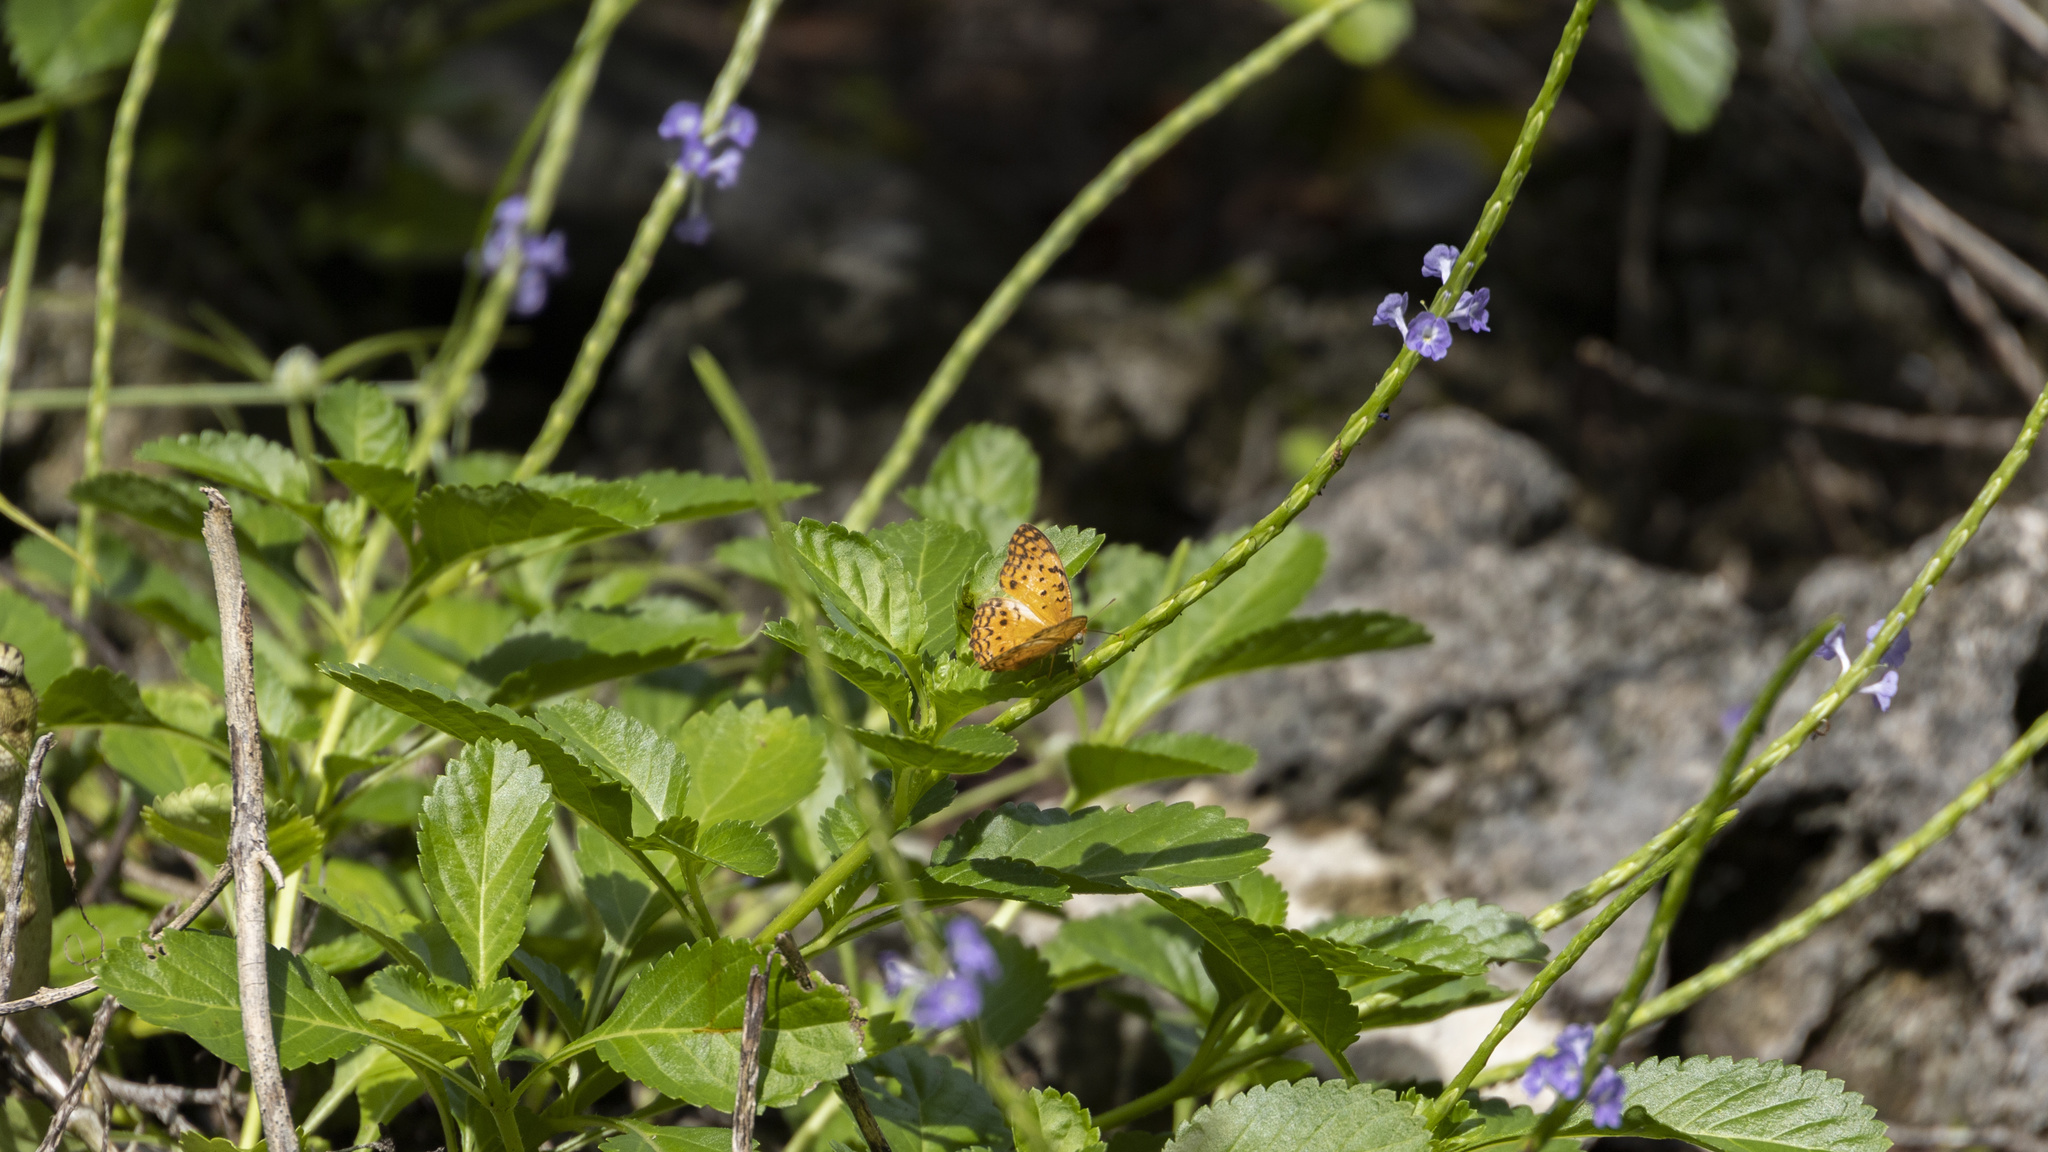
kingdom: Animalia
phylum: Arthropoda
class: Insecta
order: Lepidoptera
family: Nymphalidae
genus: Phalanta
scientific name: Phalanta phalantha
